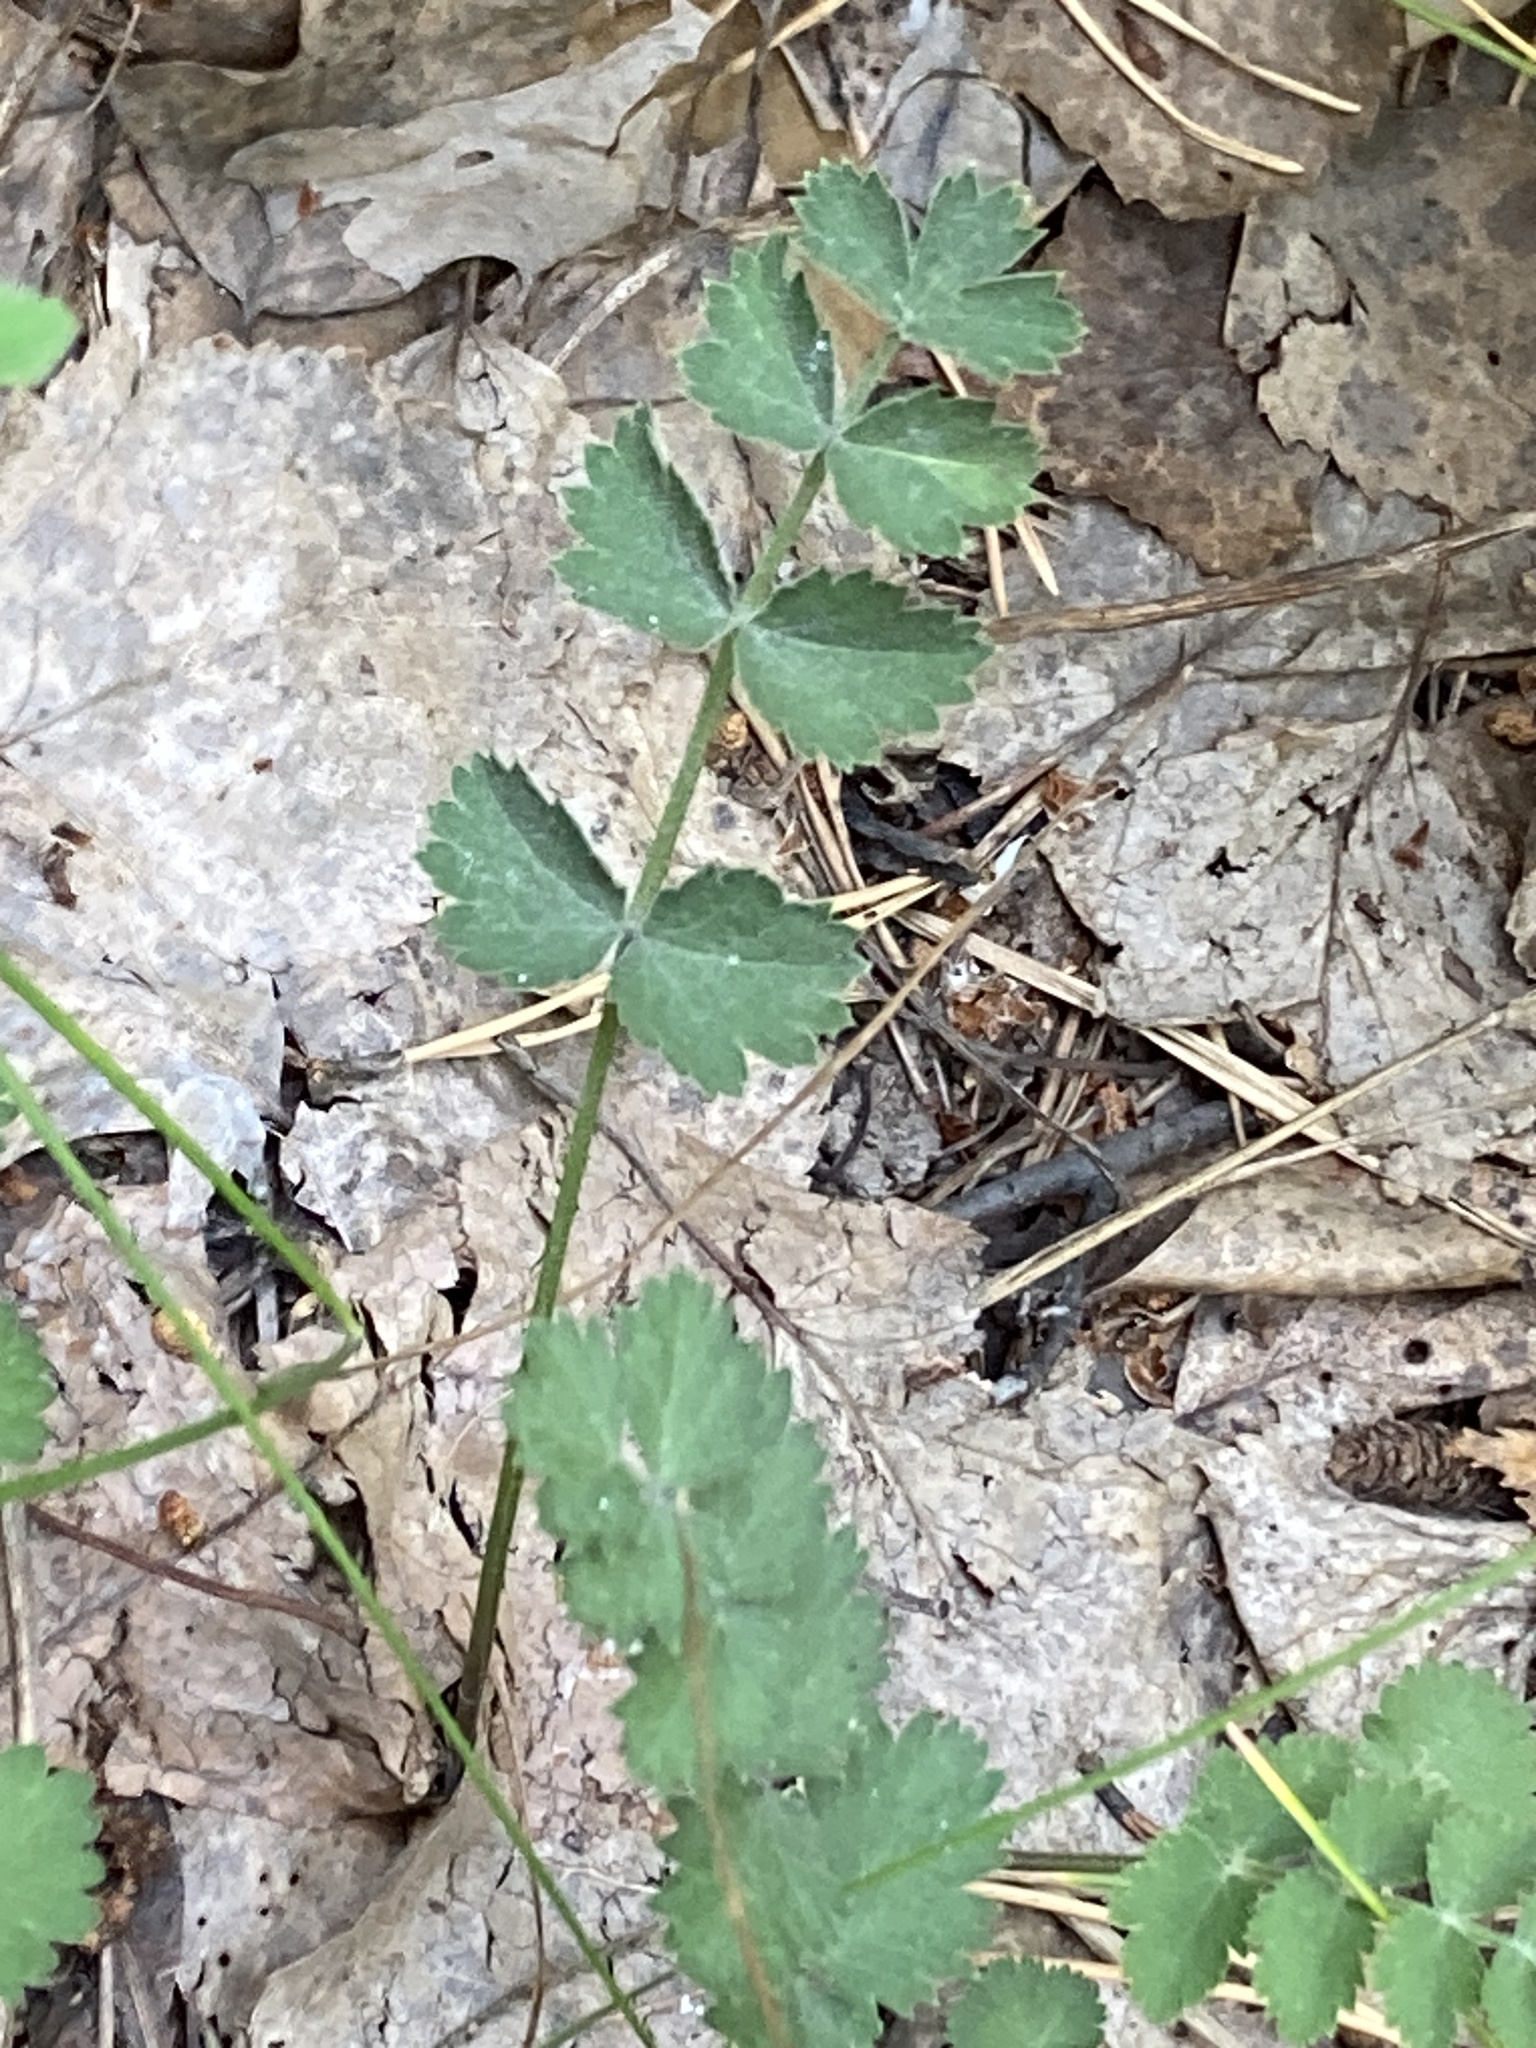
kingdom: Plantae
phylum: Tracheophyta
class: Magnoliopsida
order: Apiales
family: Apiaceae
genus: Pimpinella
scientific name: Pimpinella saxifraga
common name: Burnet-saxifrage
